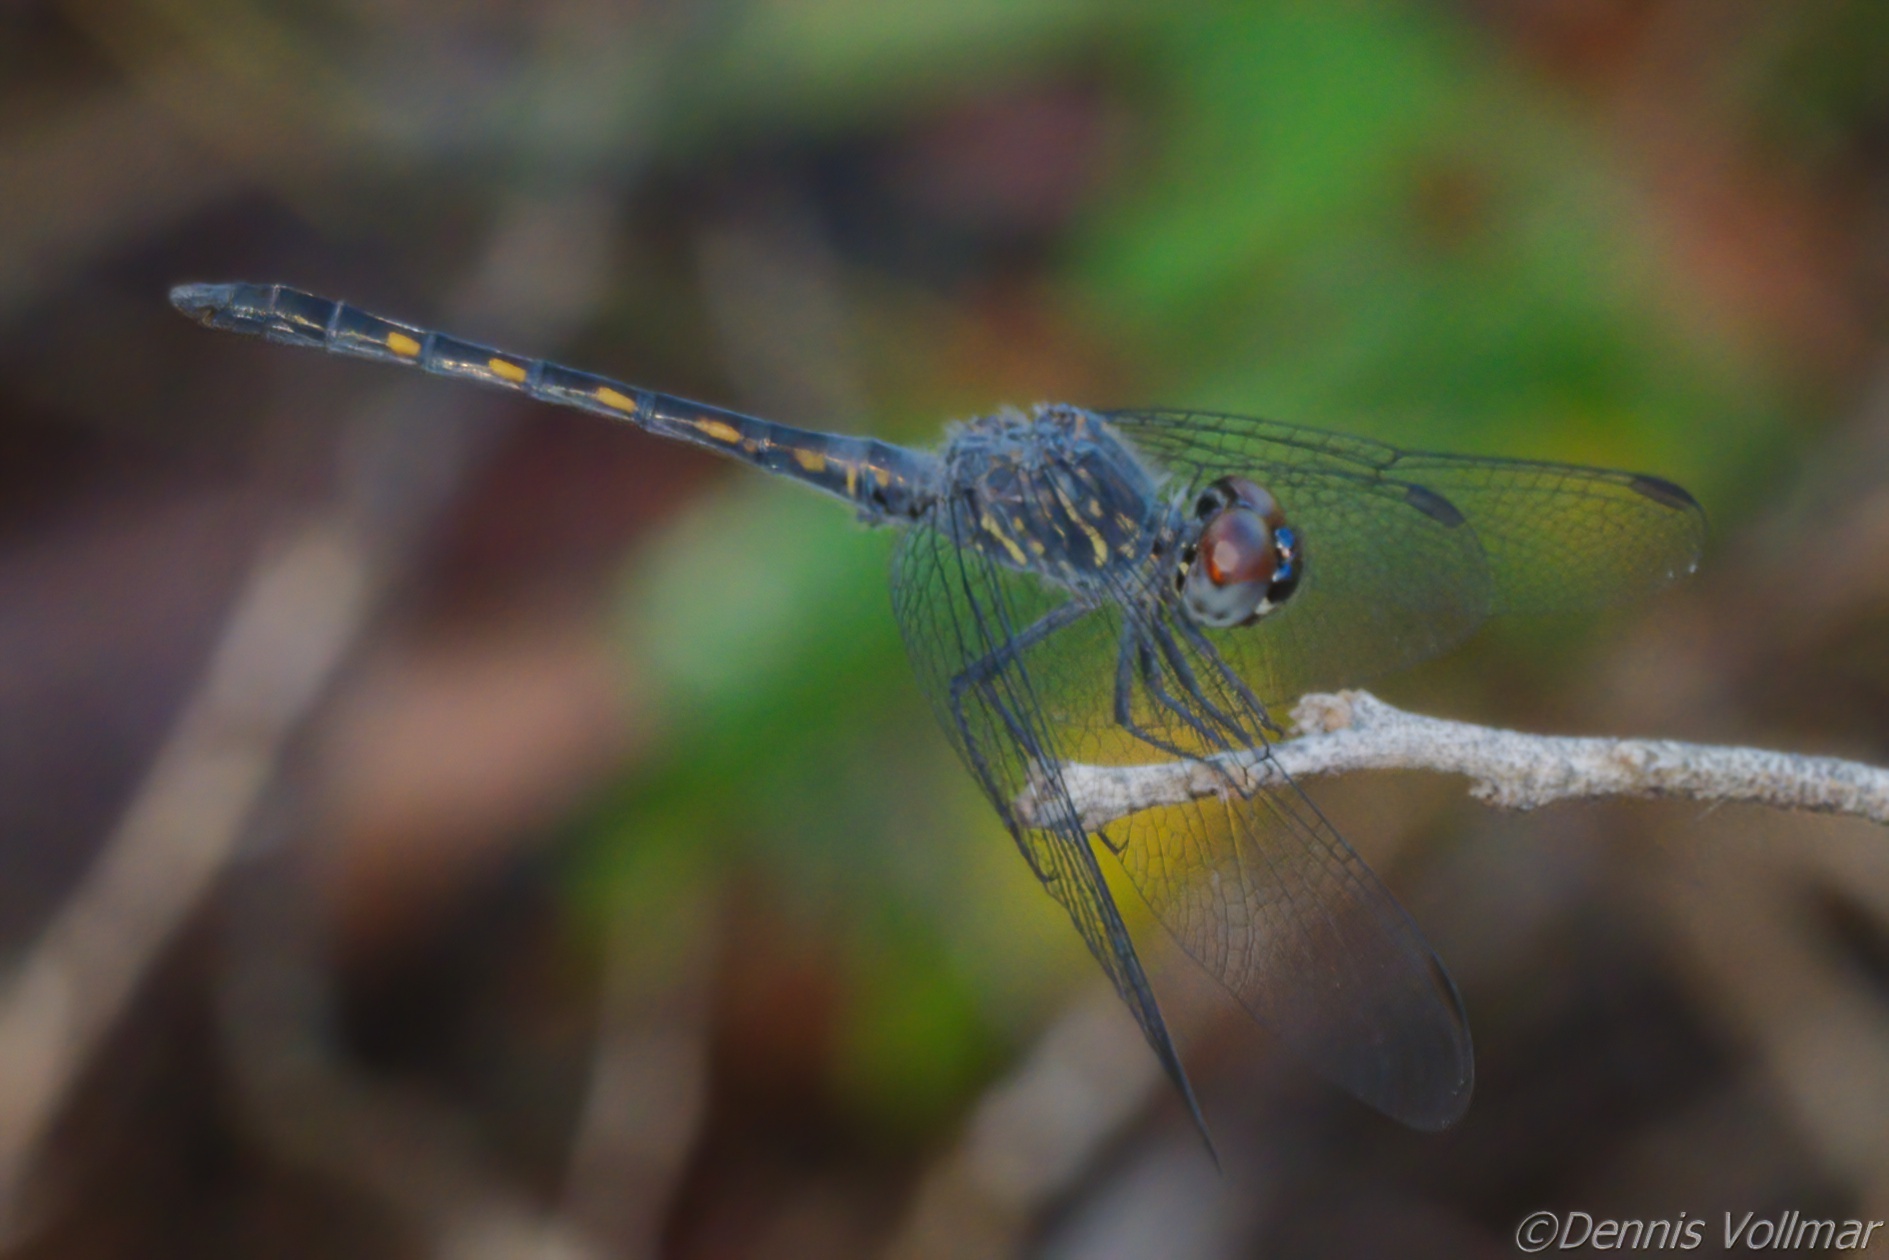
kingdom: Animalia
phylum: Arthropoda
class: Insecta
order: Odonata
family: Libellulidae
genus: Erythrodiplax
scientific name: Erythrodiplax berenice
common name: Seaside dragonlet
